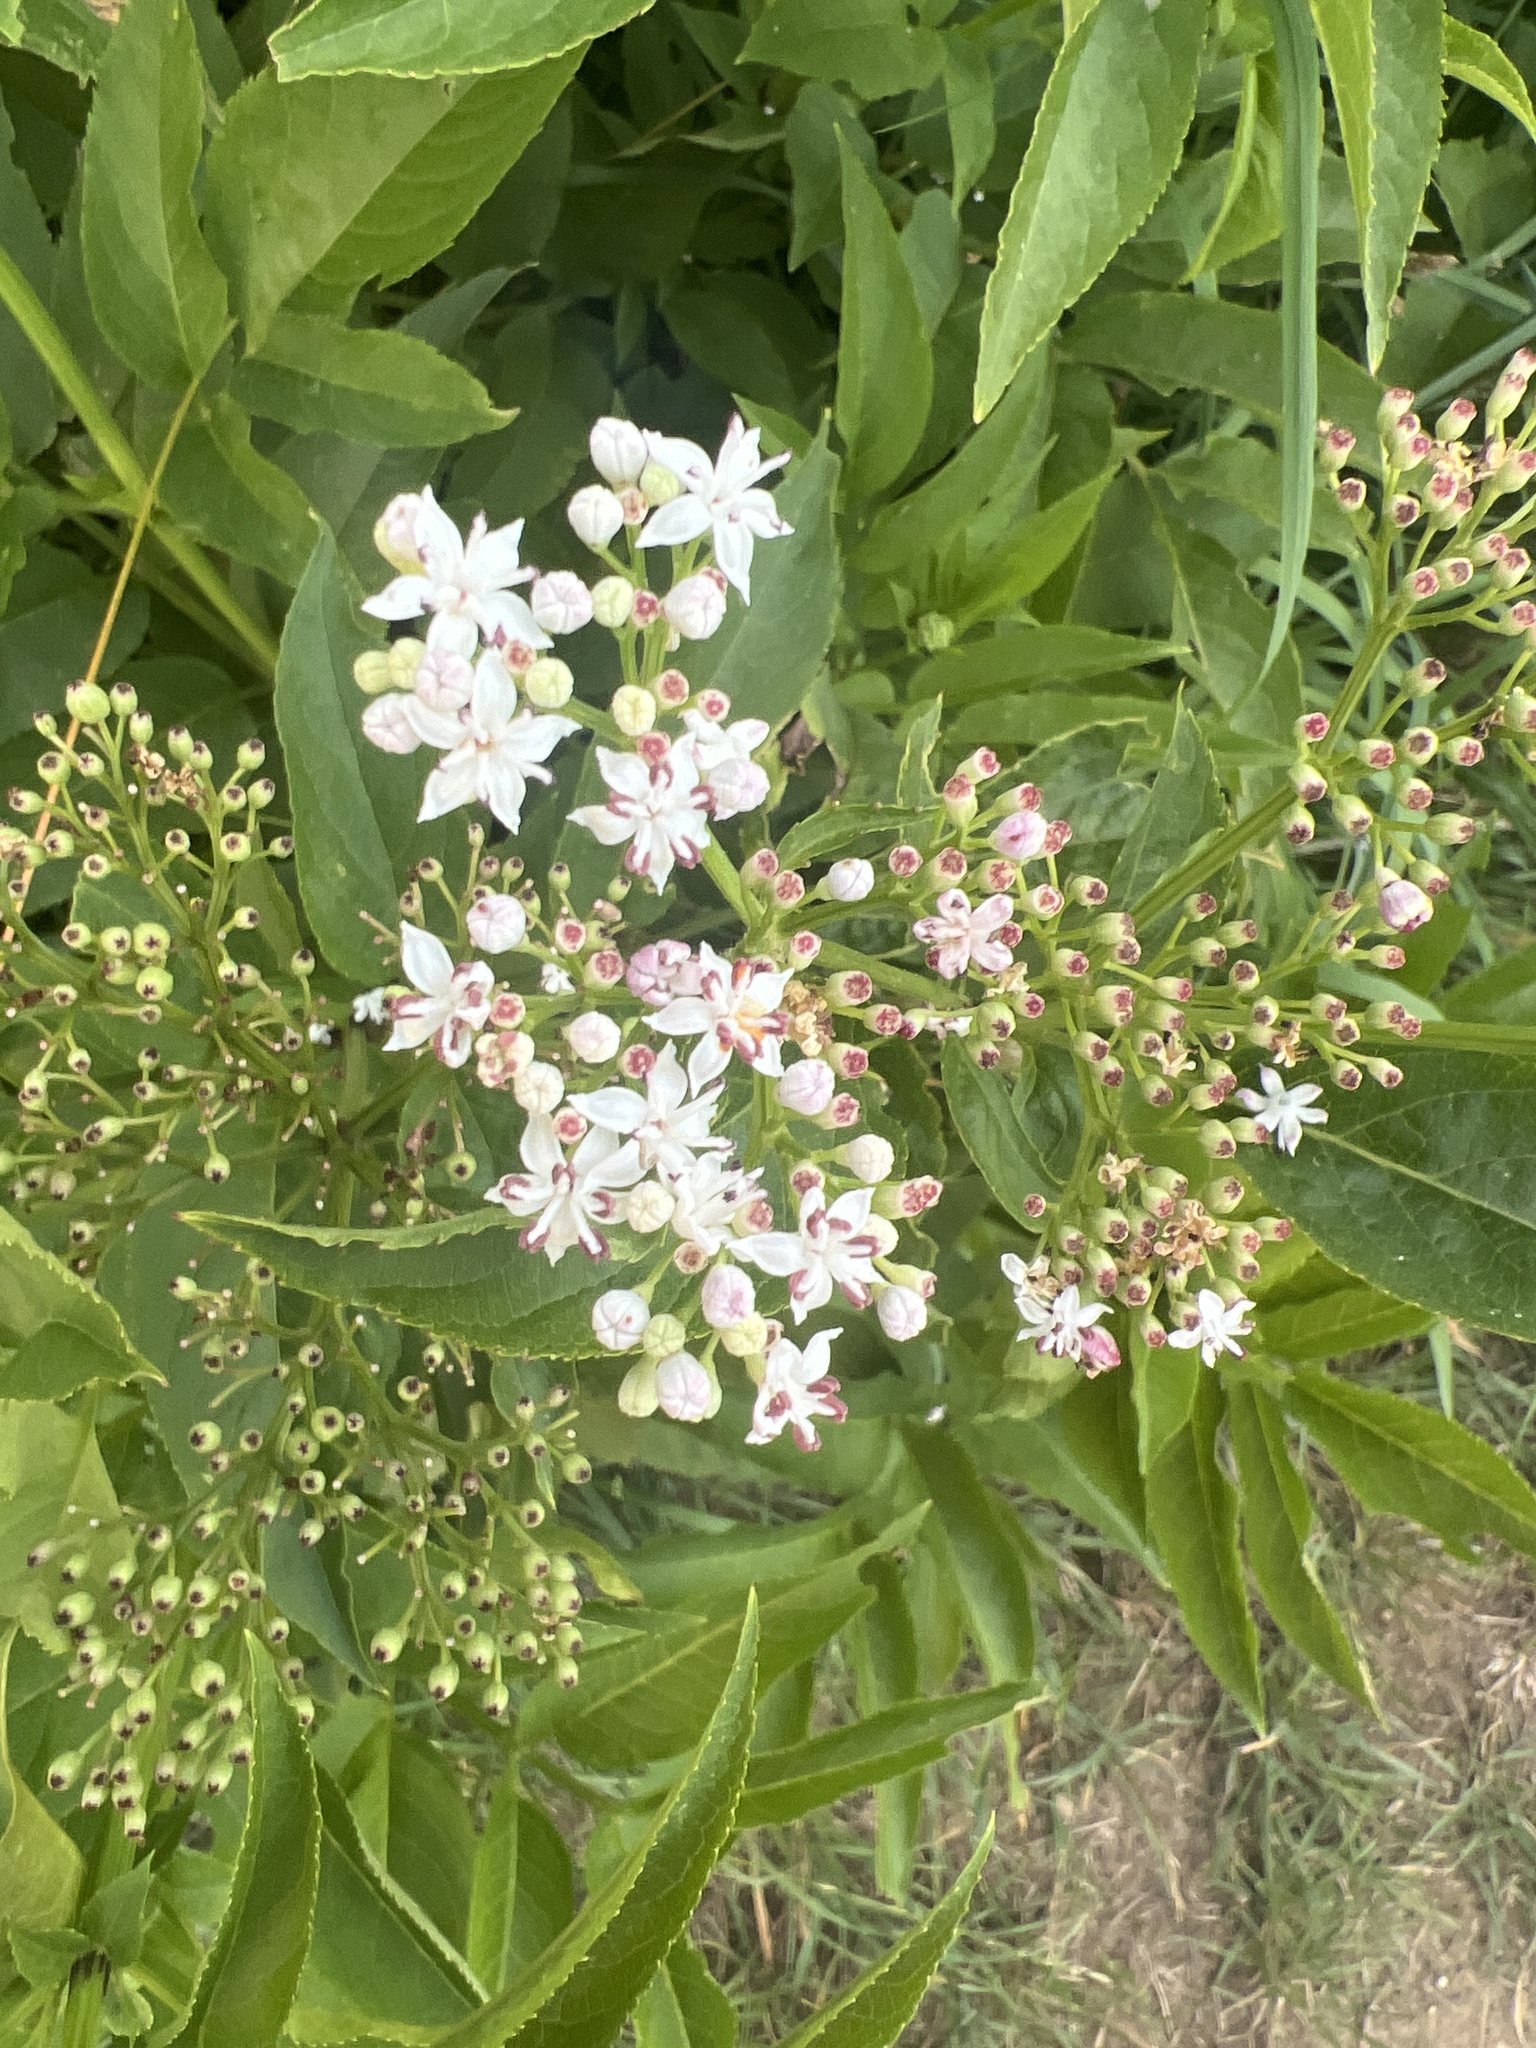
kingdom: Plantae
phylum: Tracheophyta
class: Magnoliopsida
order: Dipsacales
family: Viburnaceae
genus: Sambucus
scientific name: Sambucus ebulus
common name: Dwarf elder
